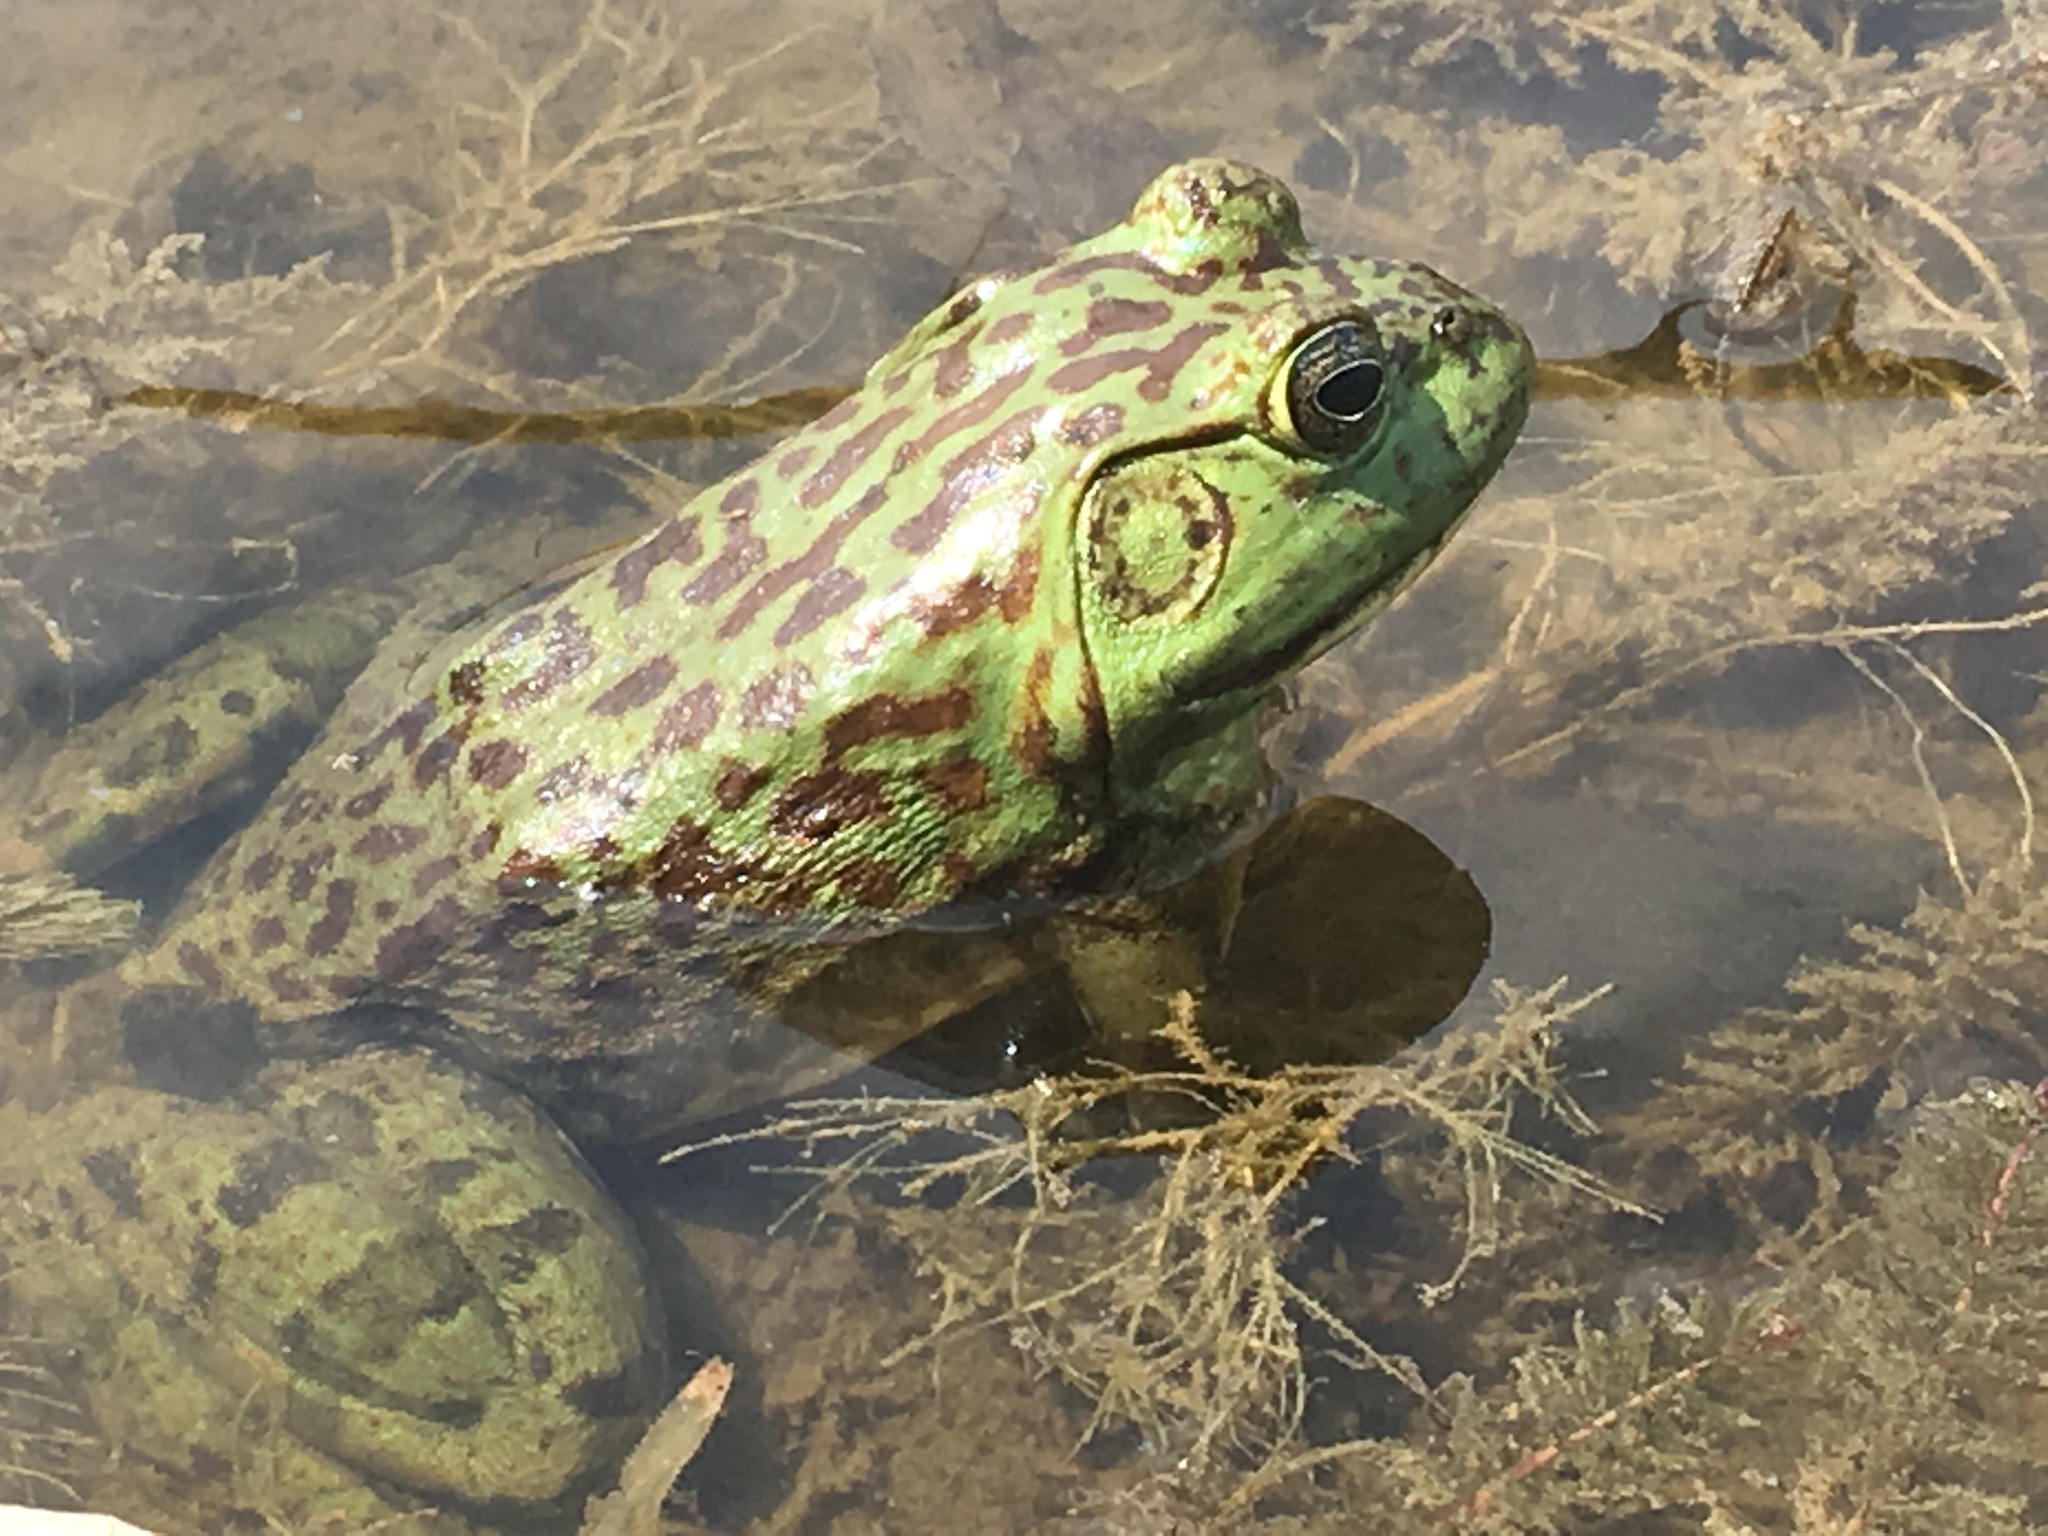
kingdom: Animalia
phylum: Chordata
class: Amphibia
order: Anura
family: Ranidae
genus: Lithobates
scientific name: Lithobates catesbeianus
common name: American bullfrog
